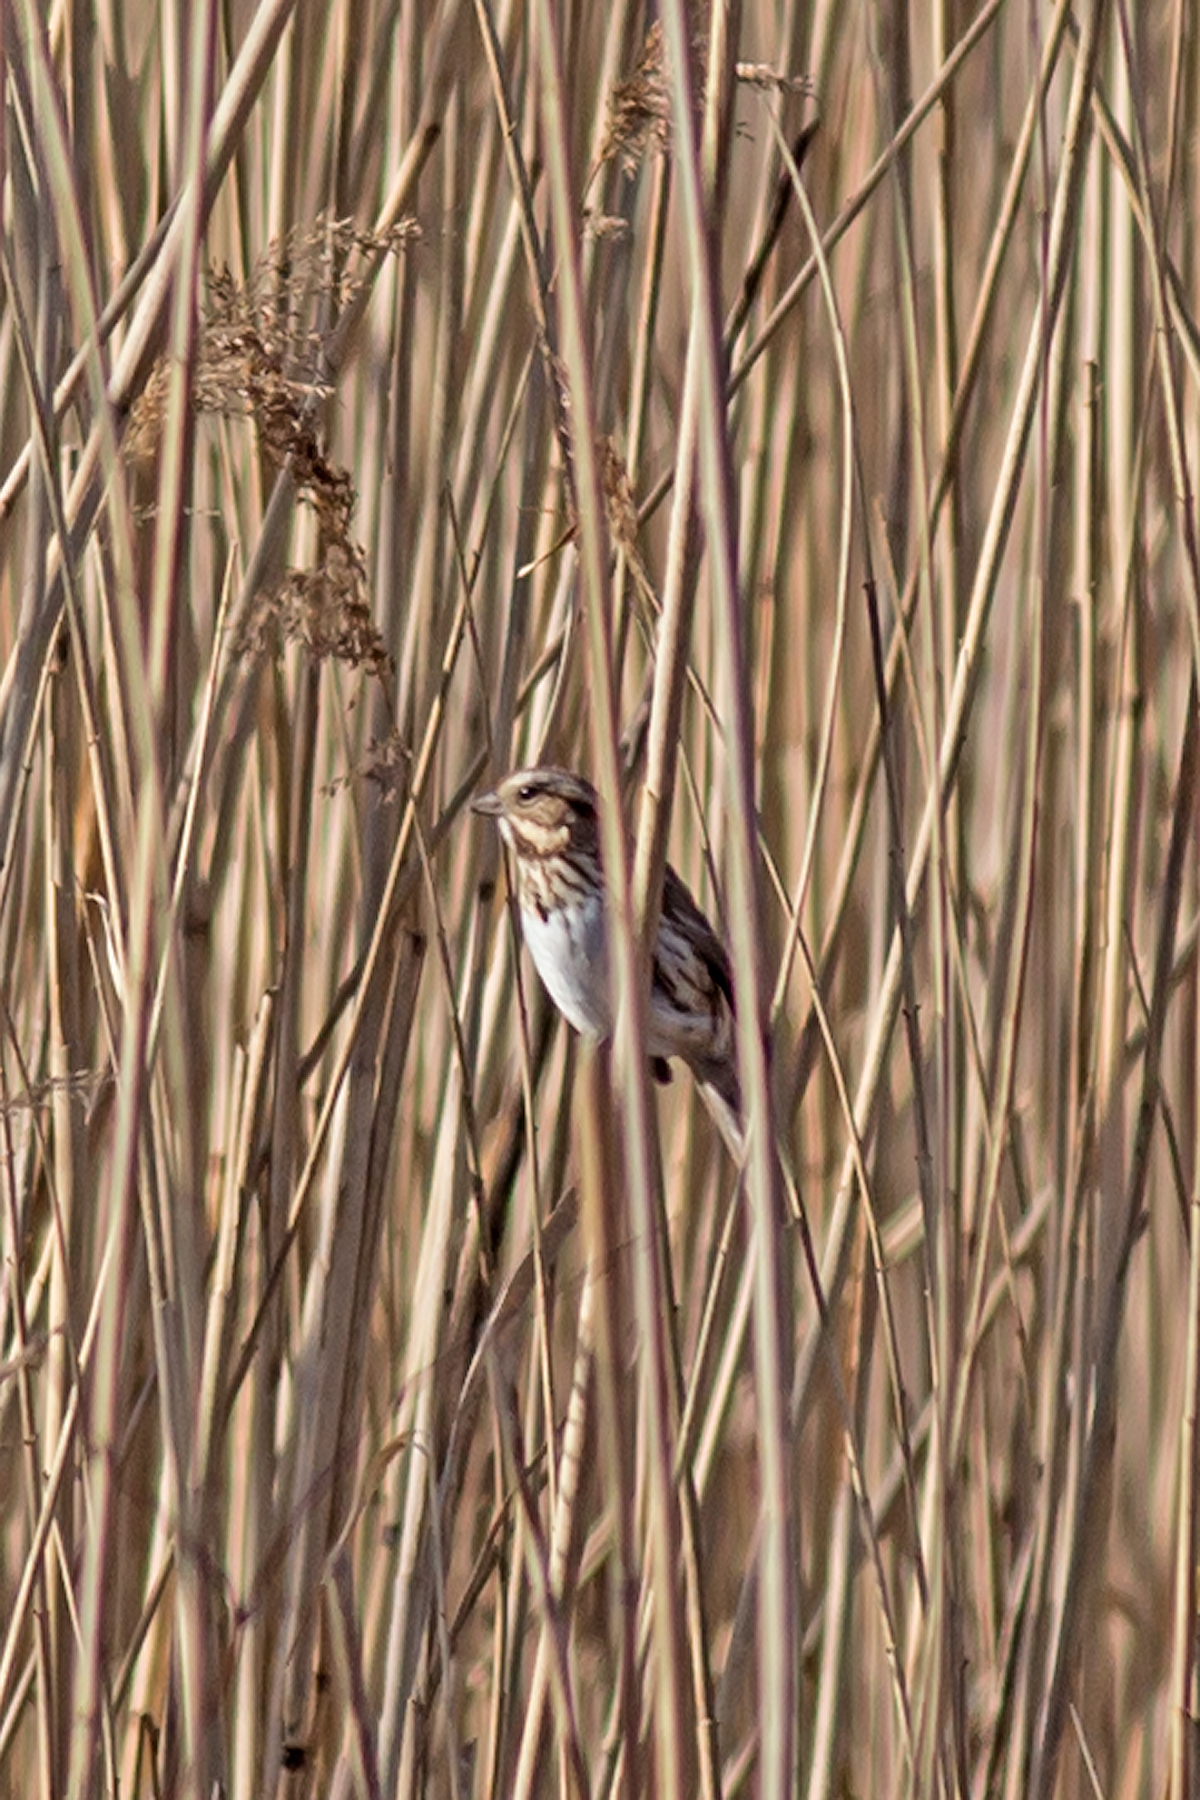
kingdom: Animalia
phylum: Chordata
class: Aves
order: Passeriformes
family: Passerellidae
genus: Melospiza
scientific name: Melospiza melodia
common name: Song sparrow
